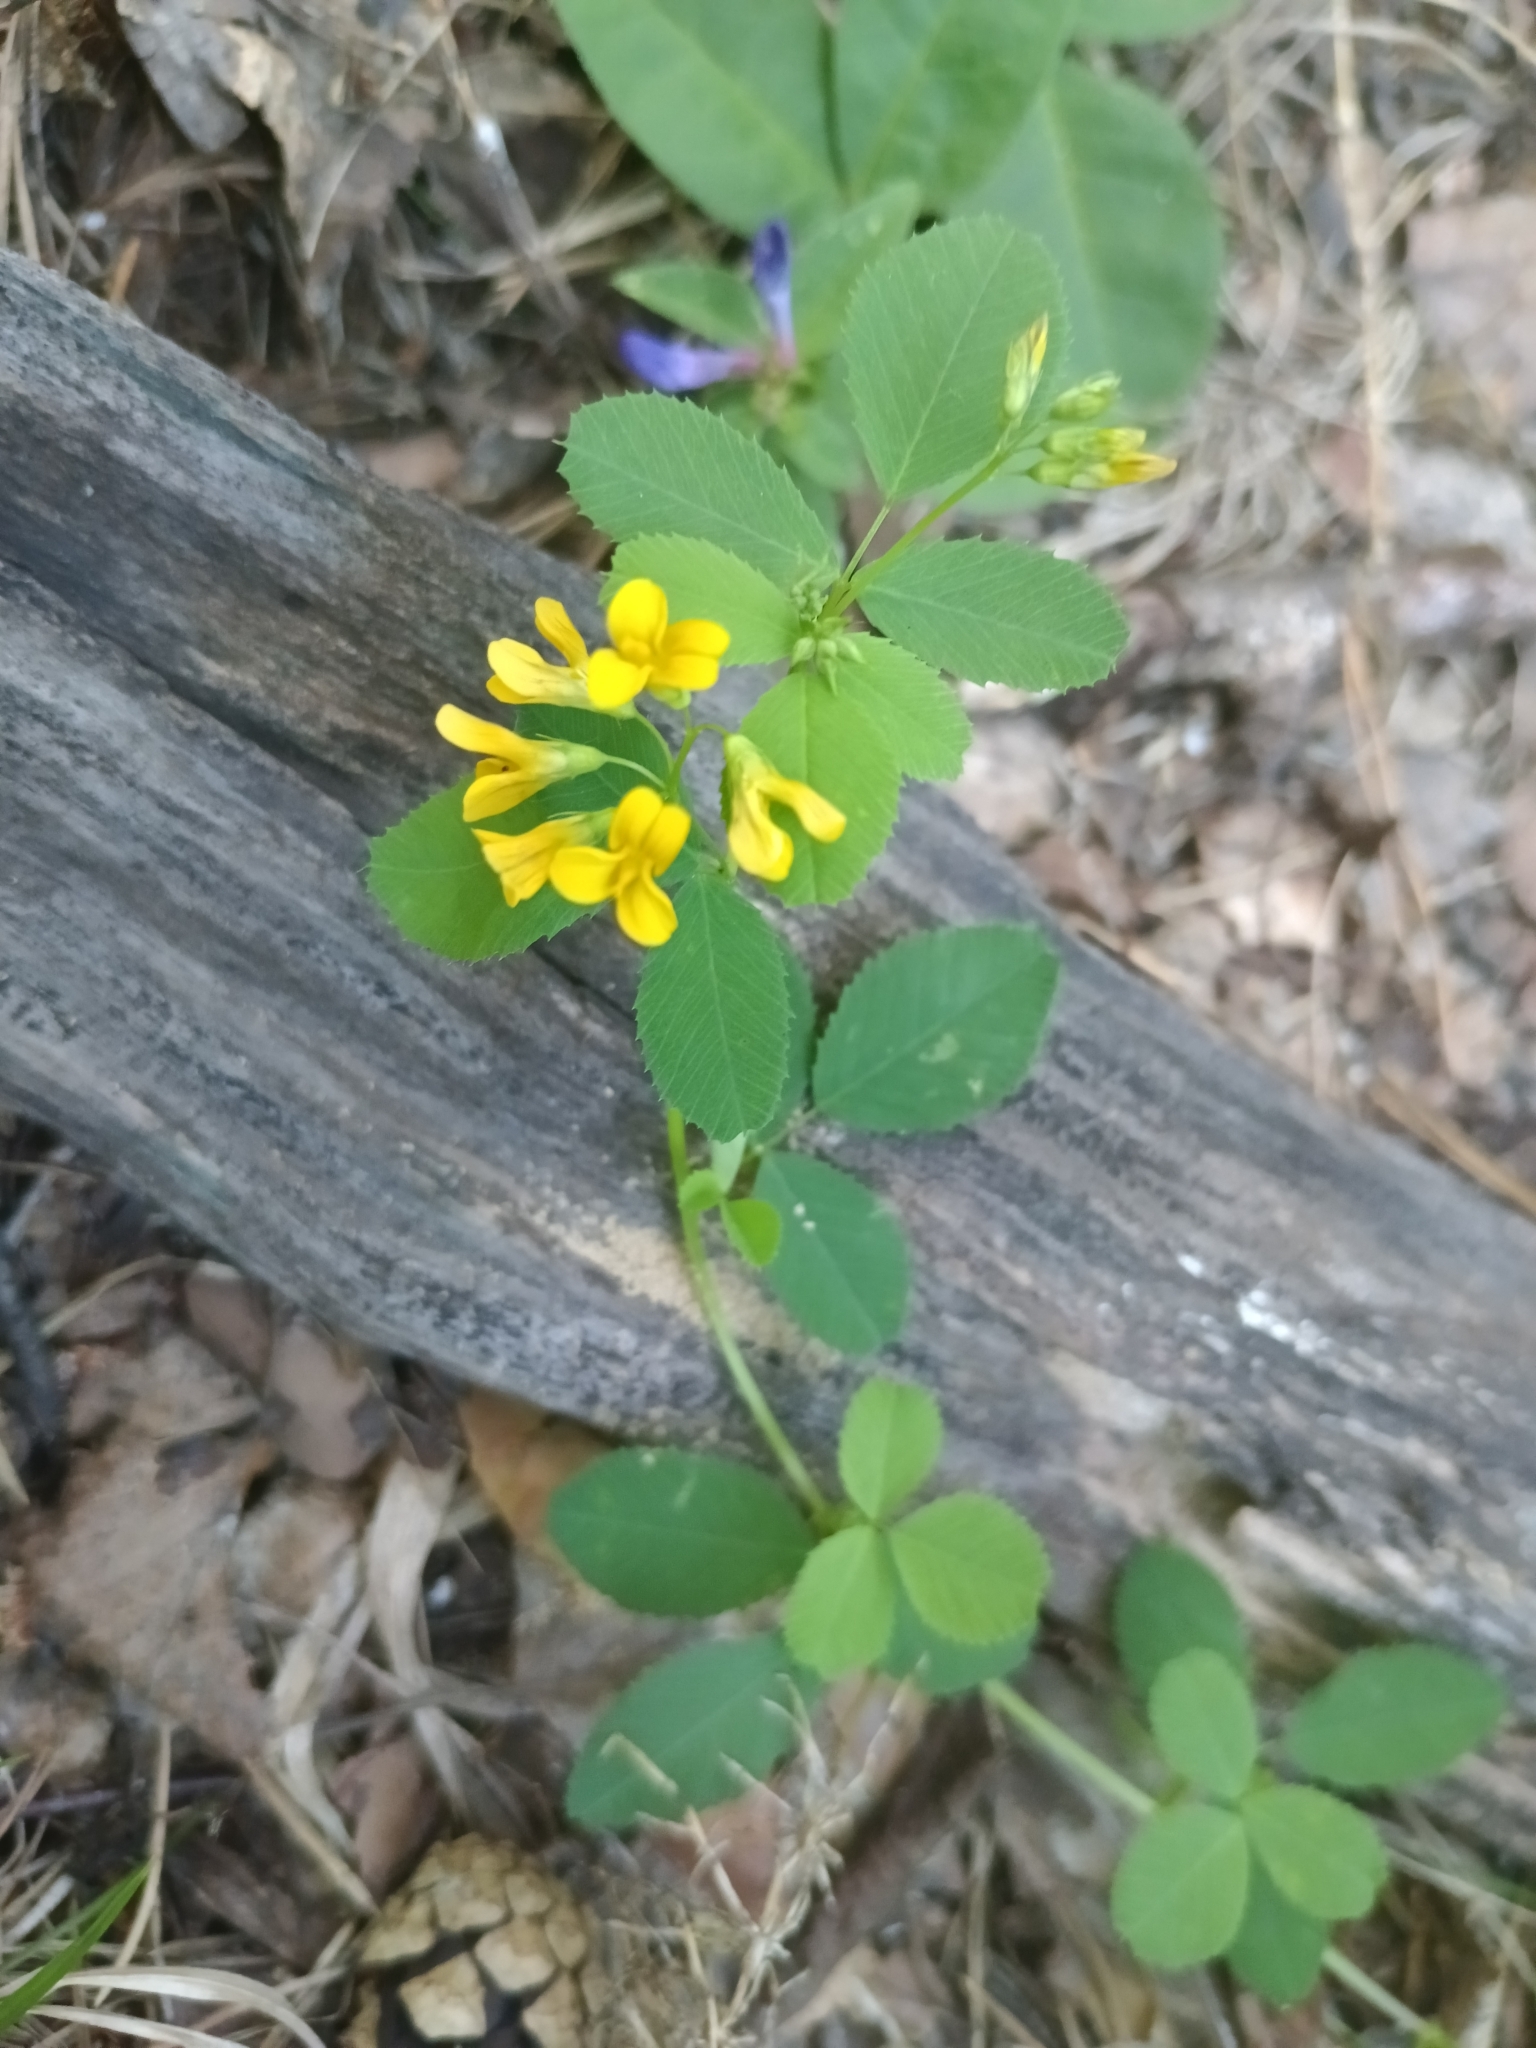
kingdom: Plantae
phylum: Tracheophyta
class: Magnoliopsida
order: Fabales
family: Fabaceae
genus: Medicago
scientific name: Medicago platycarpos
